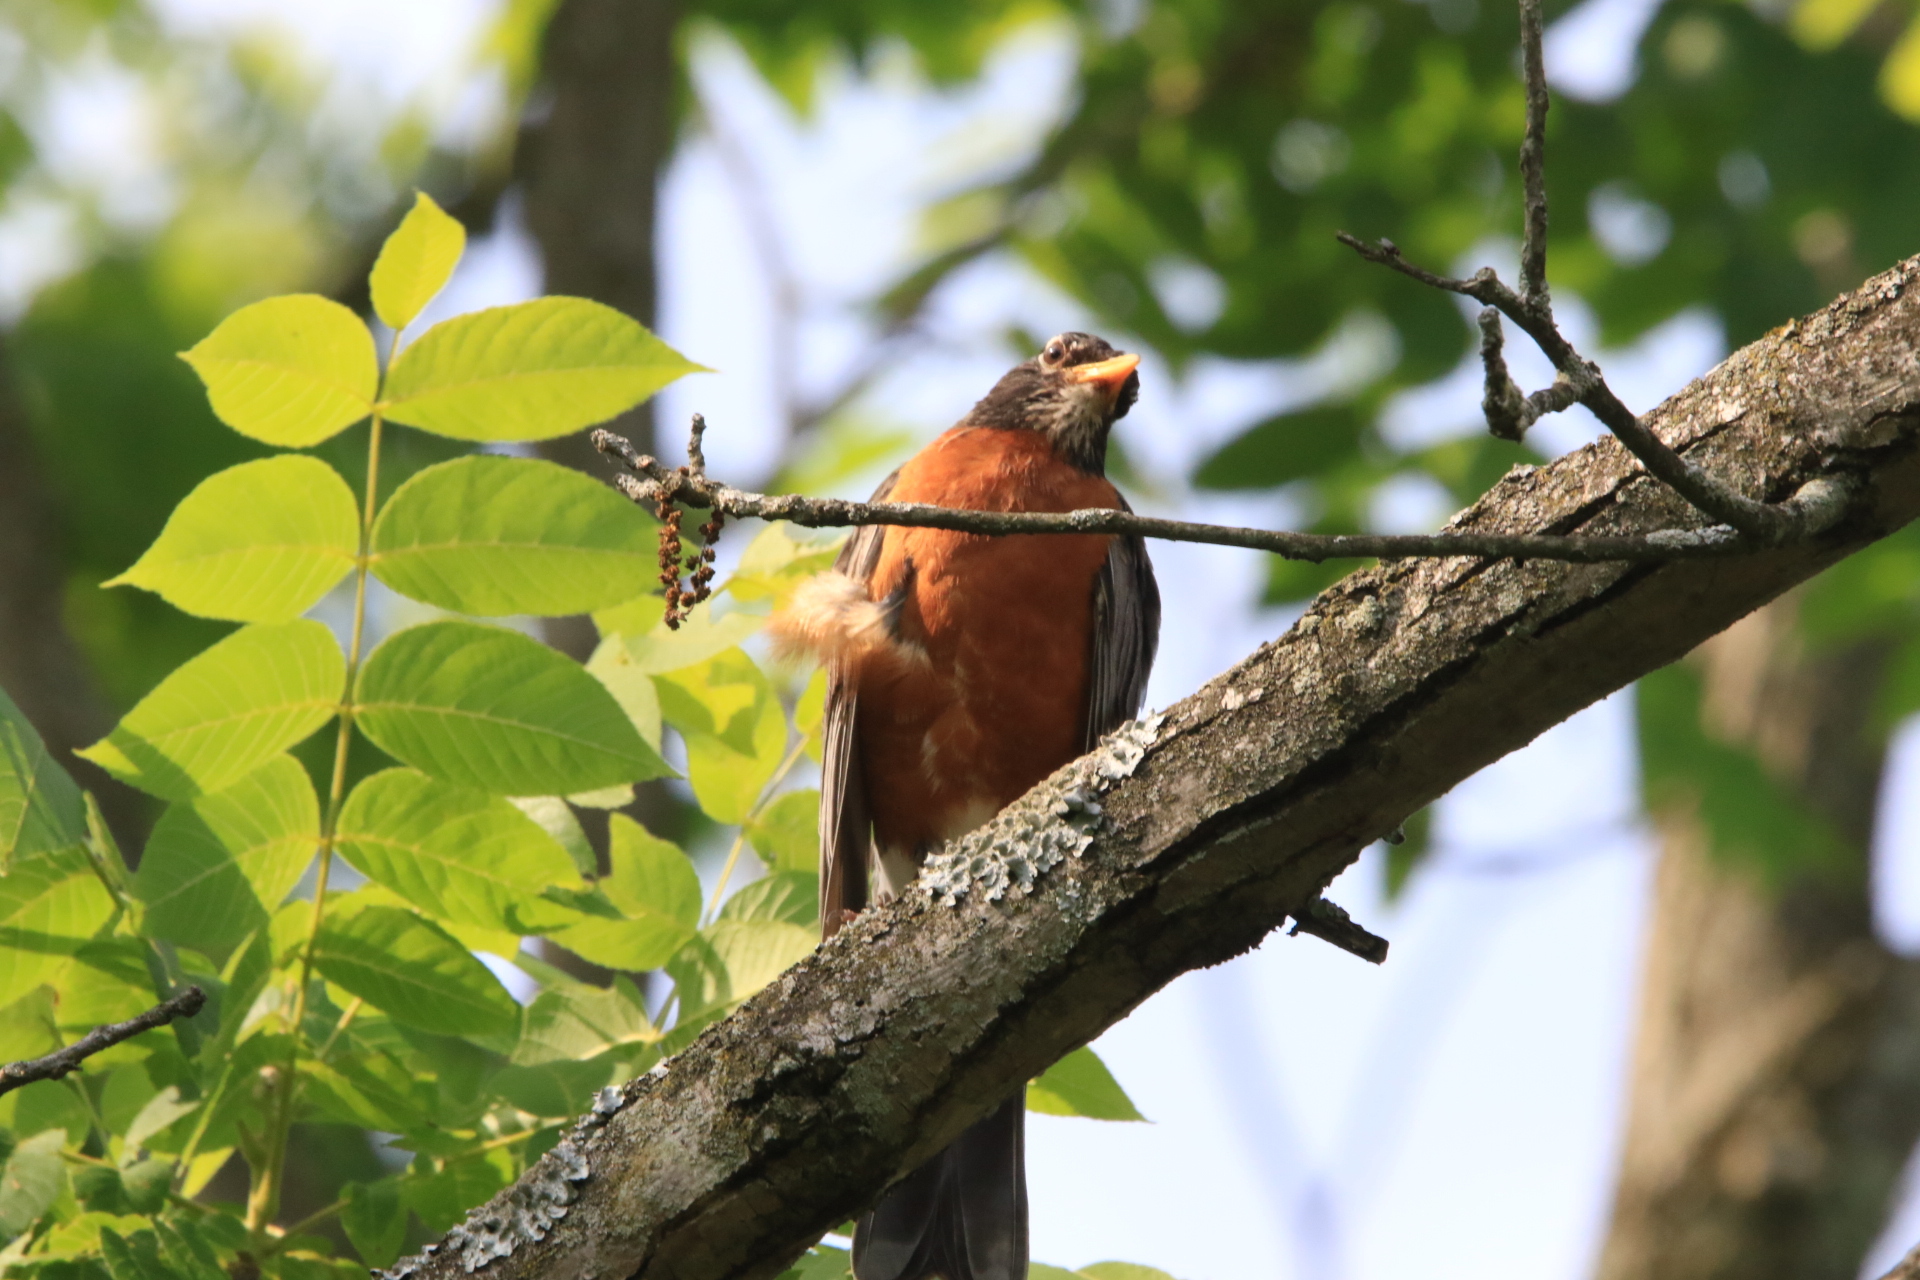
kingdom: Animalia
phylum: Chordata
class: Aves
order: Passeriformes
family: Turdidae
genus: Turdus
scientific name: Turdus migratorius
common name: American robin
